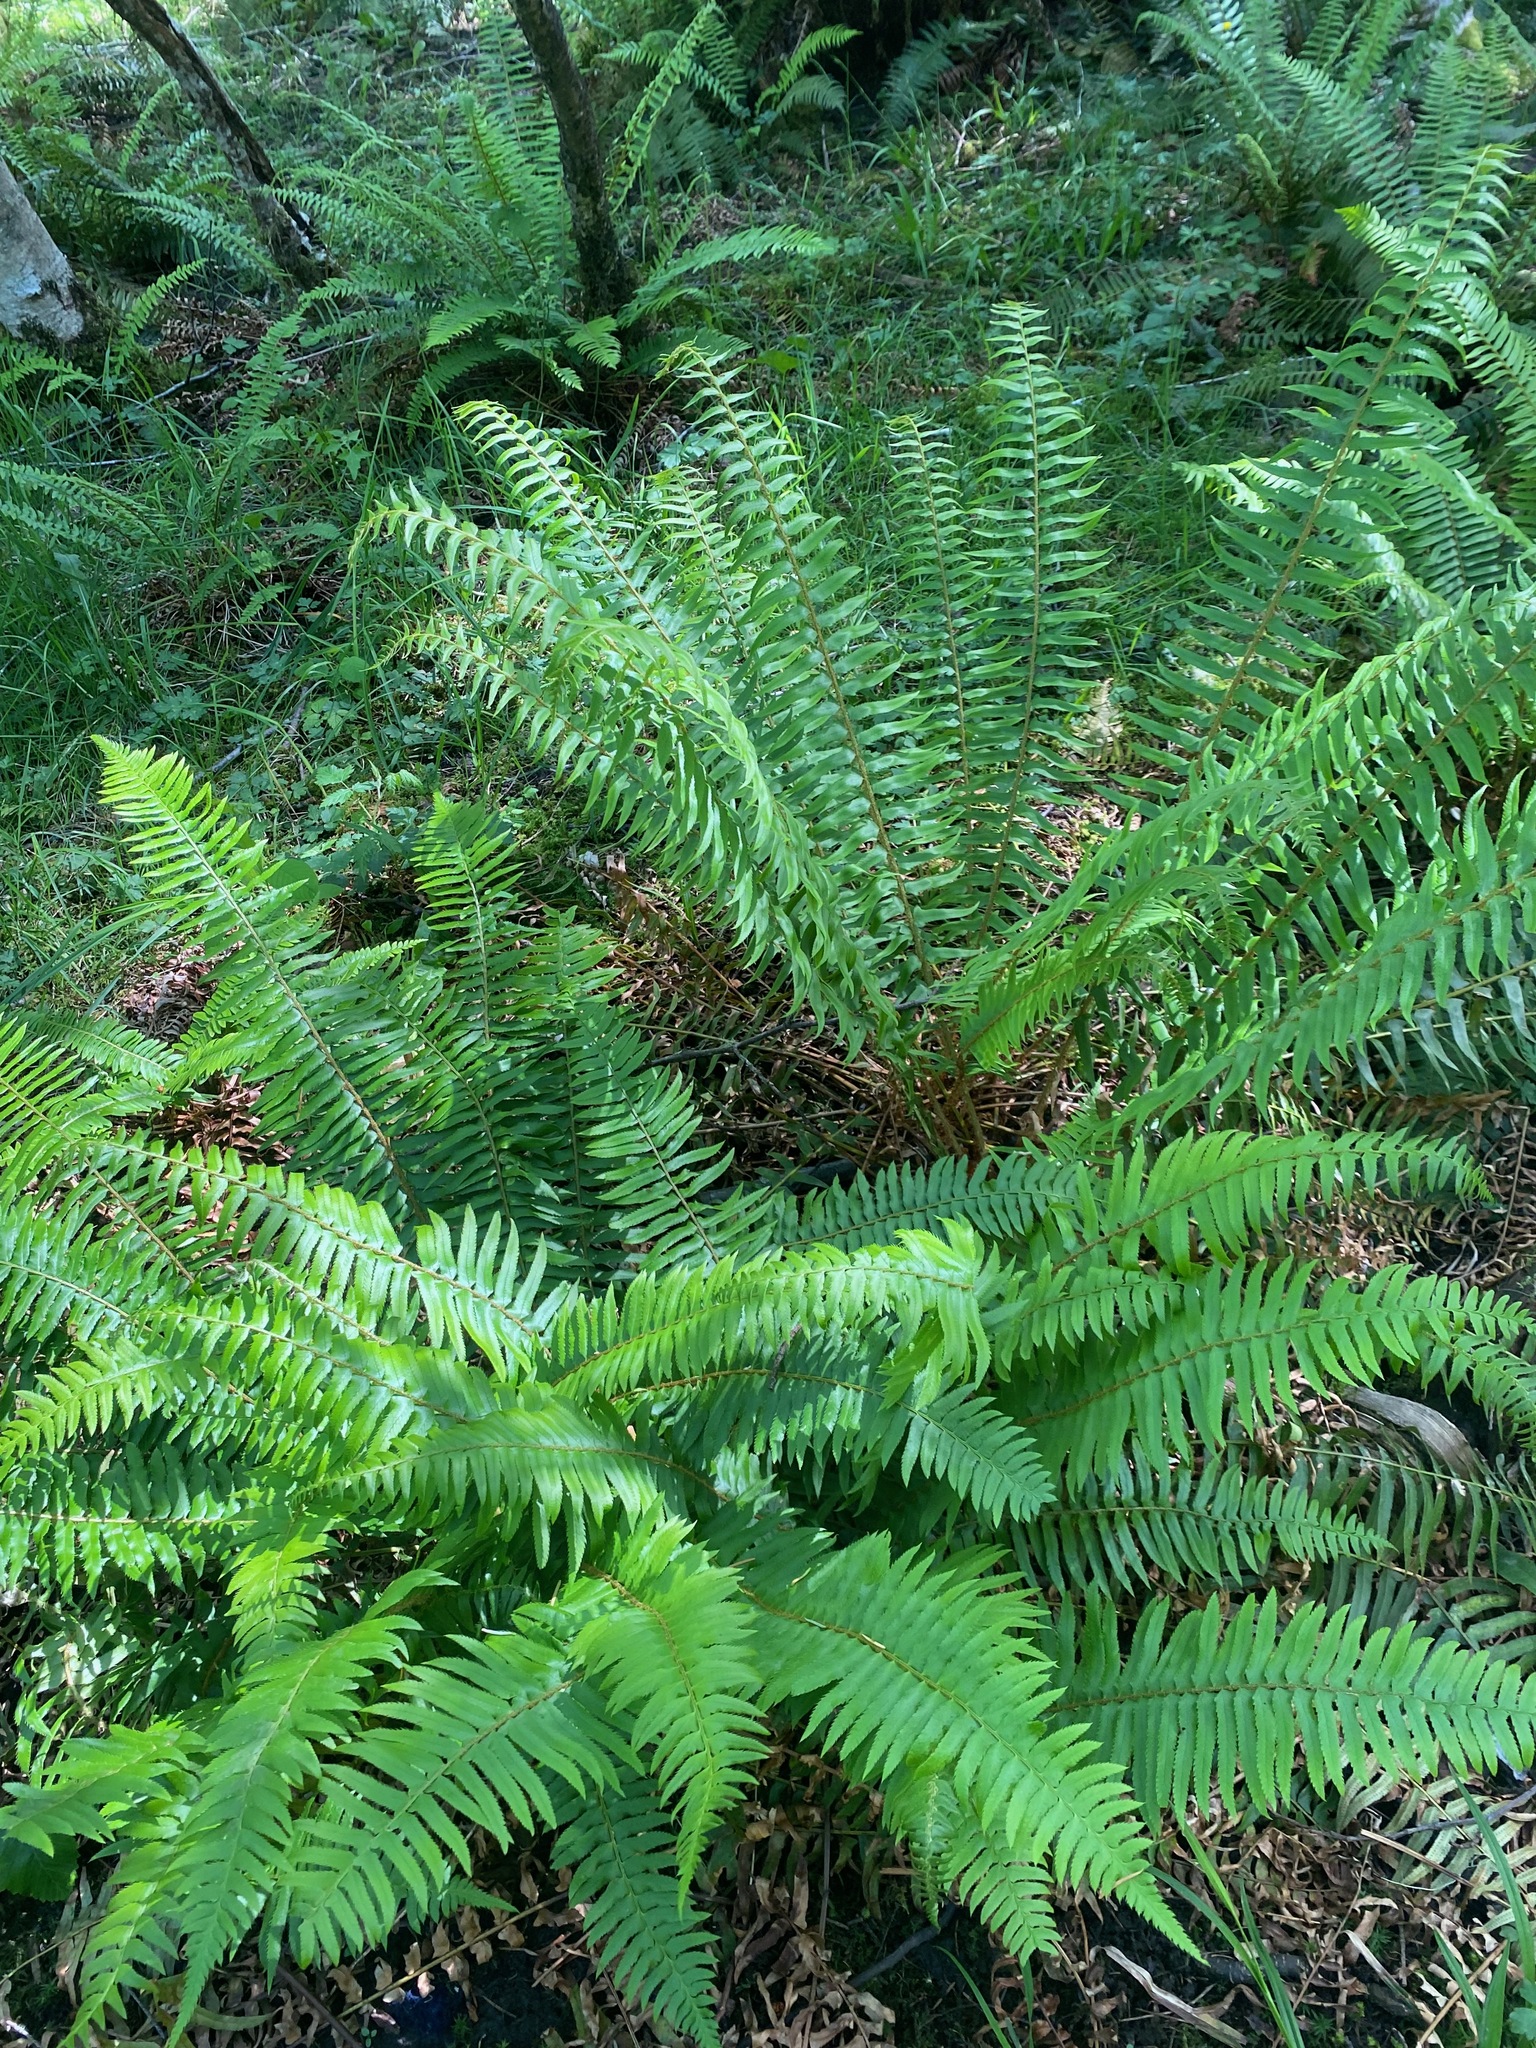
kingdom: Plantae
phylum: Tracheophyta
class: Polypodiopsida
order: Polypodiales
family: Dryopteridaceae
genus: Polystichum
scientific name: Polystichum munitum
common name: Western sword-fern
